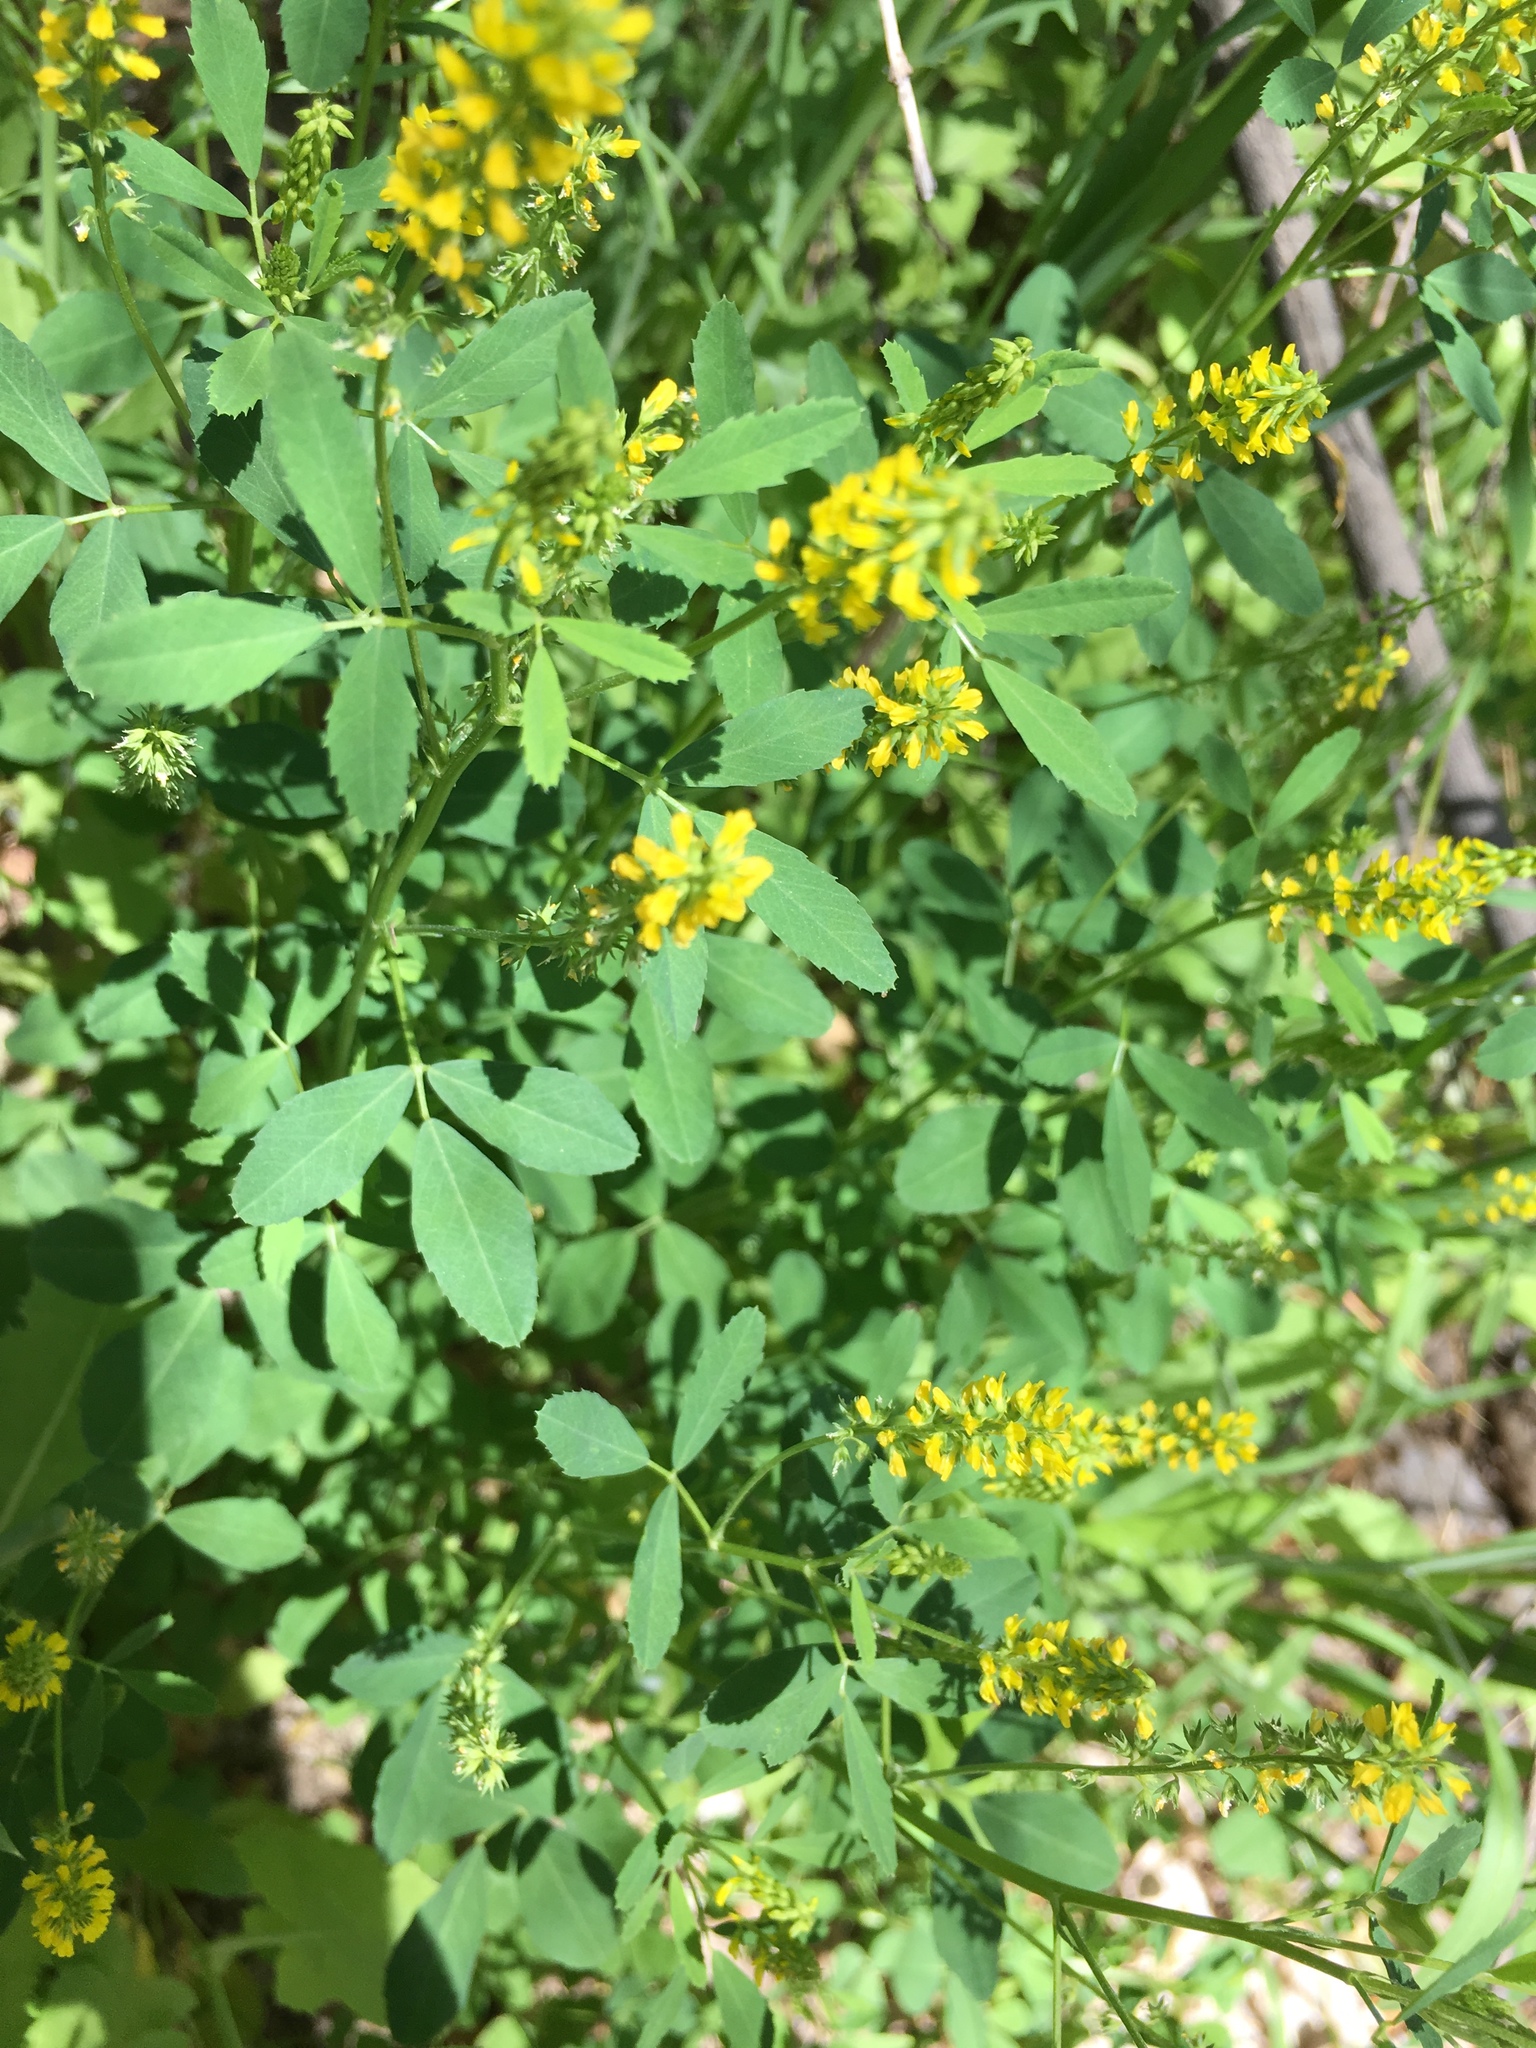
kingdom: Plantae
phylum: Tracheophyta
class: Magnoliopsida
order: Fabales
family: Fabaceae
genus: Melilotus
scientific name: Melilotus indicus
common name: Small melilot
